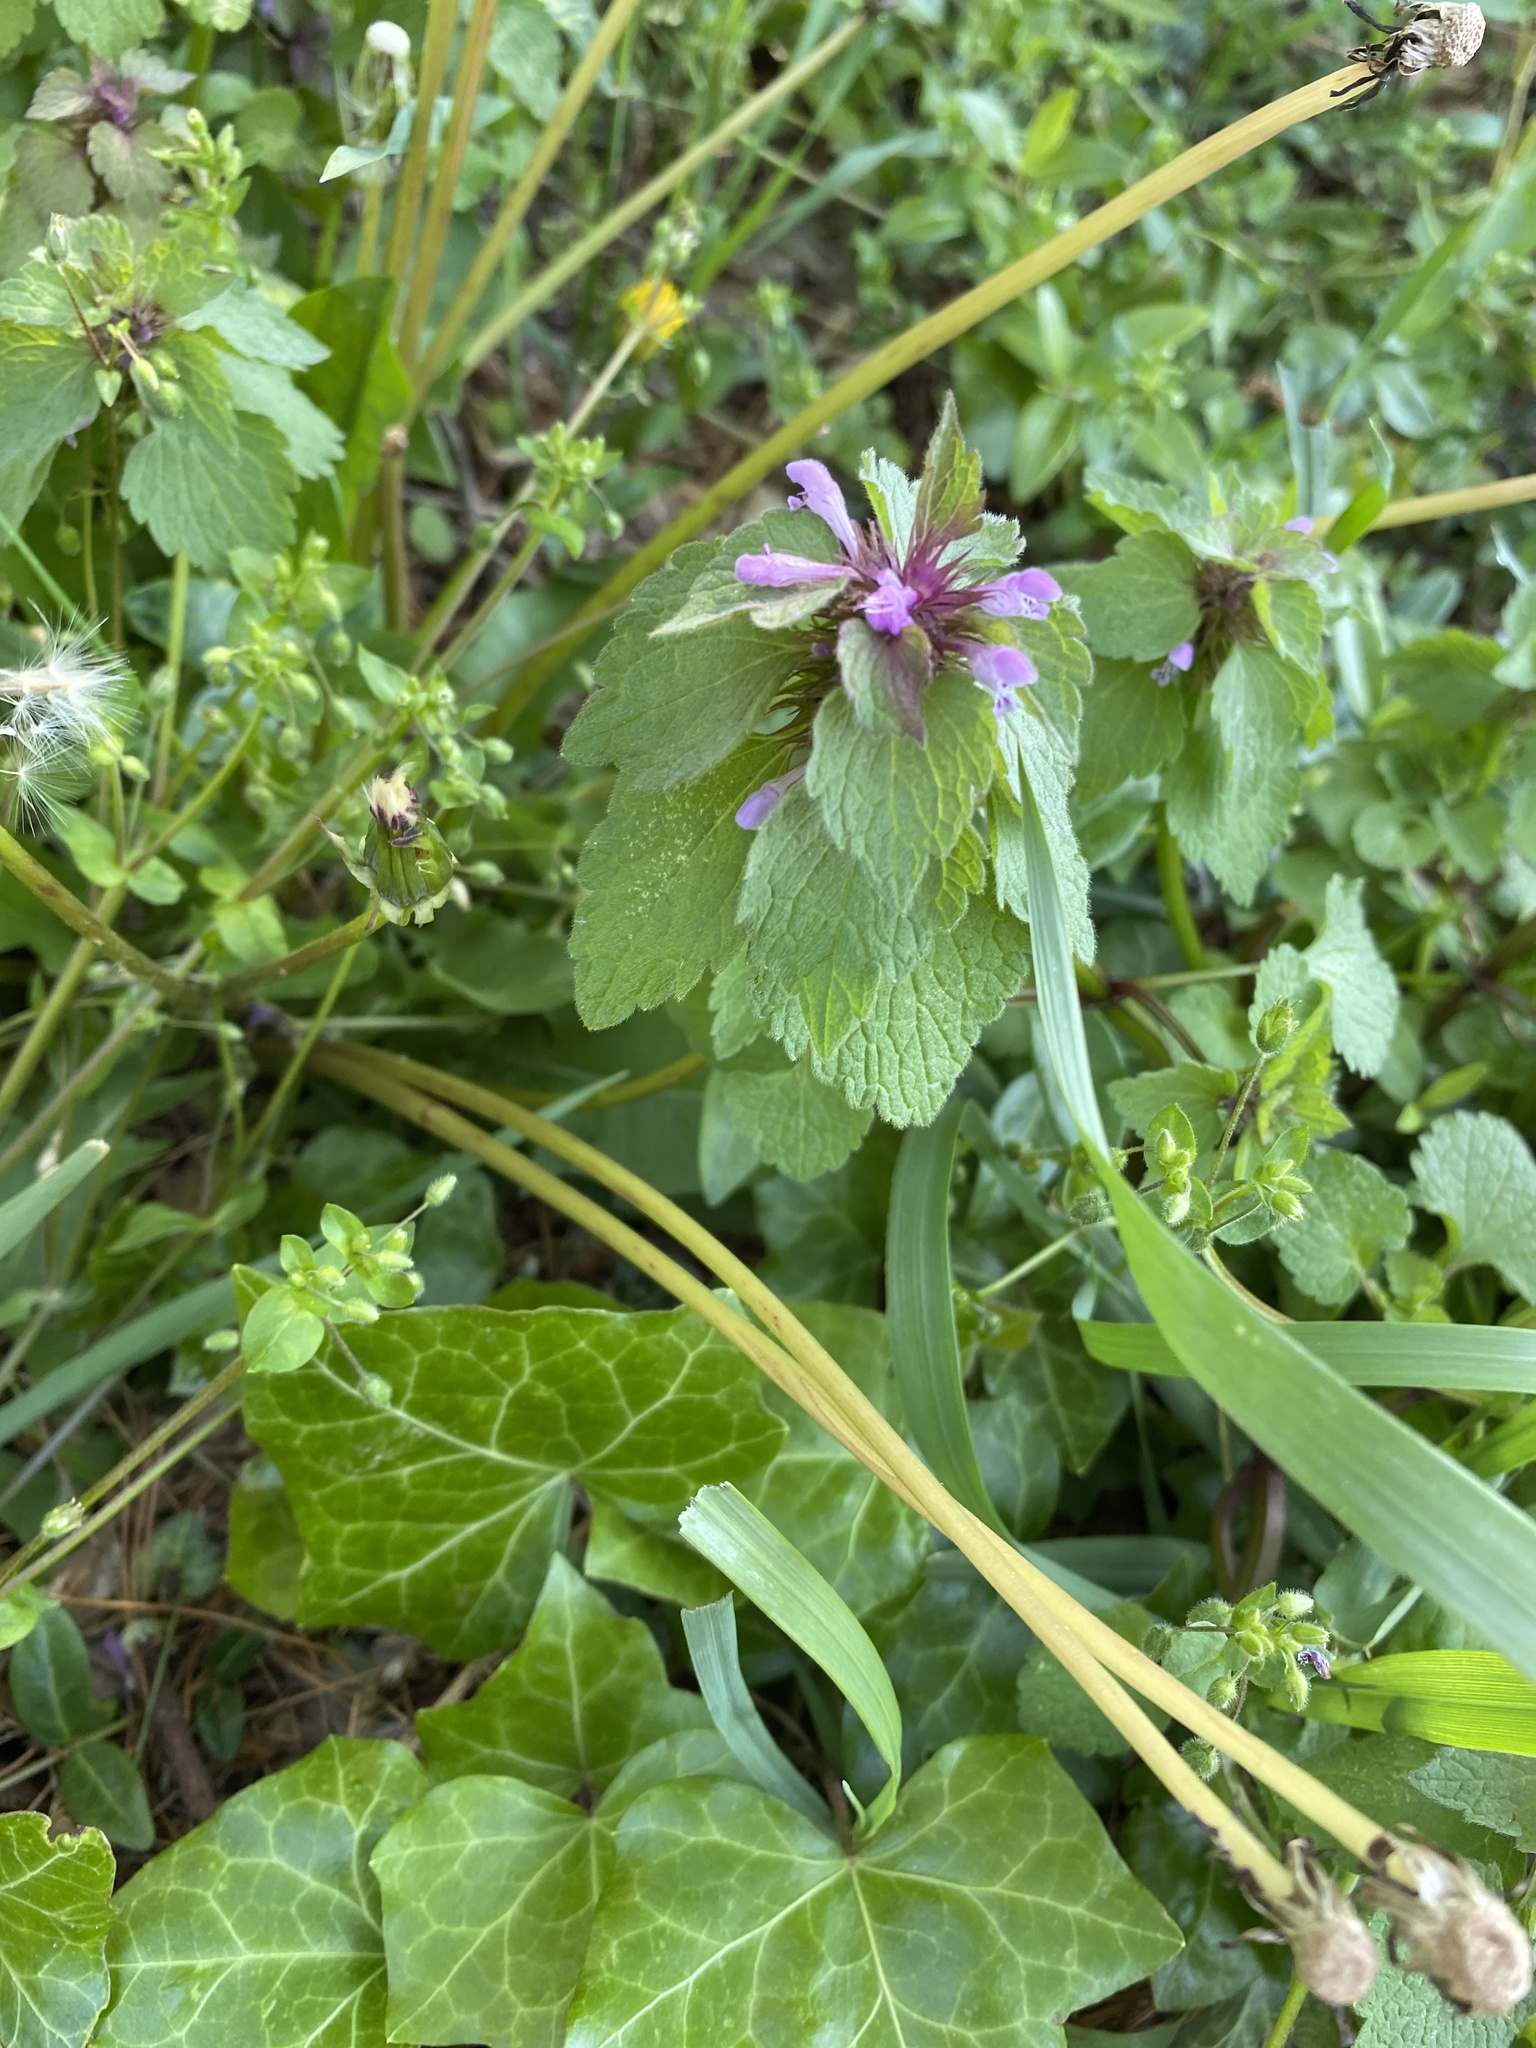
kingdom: Plantae
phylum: Tracheophyta
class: Magnoliopsida
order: Lamiales
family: Lamiaceae
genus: Lamium
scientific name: Lamium purpureum
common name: Red dead-nettle
